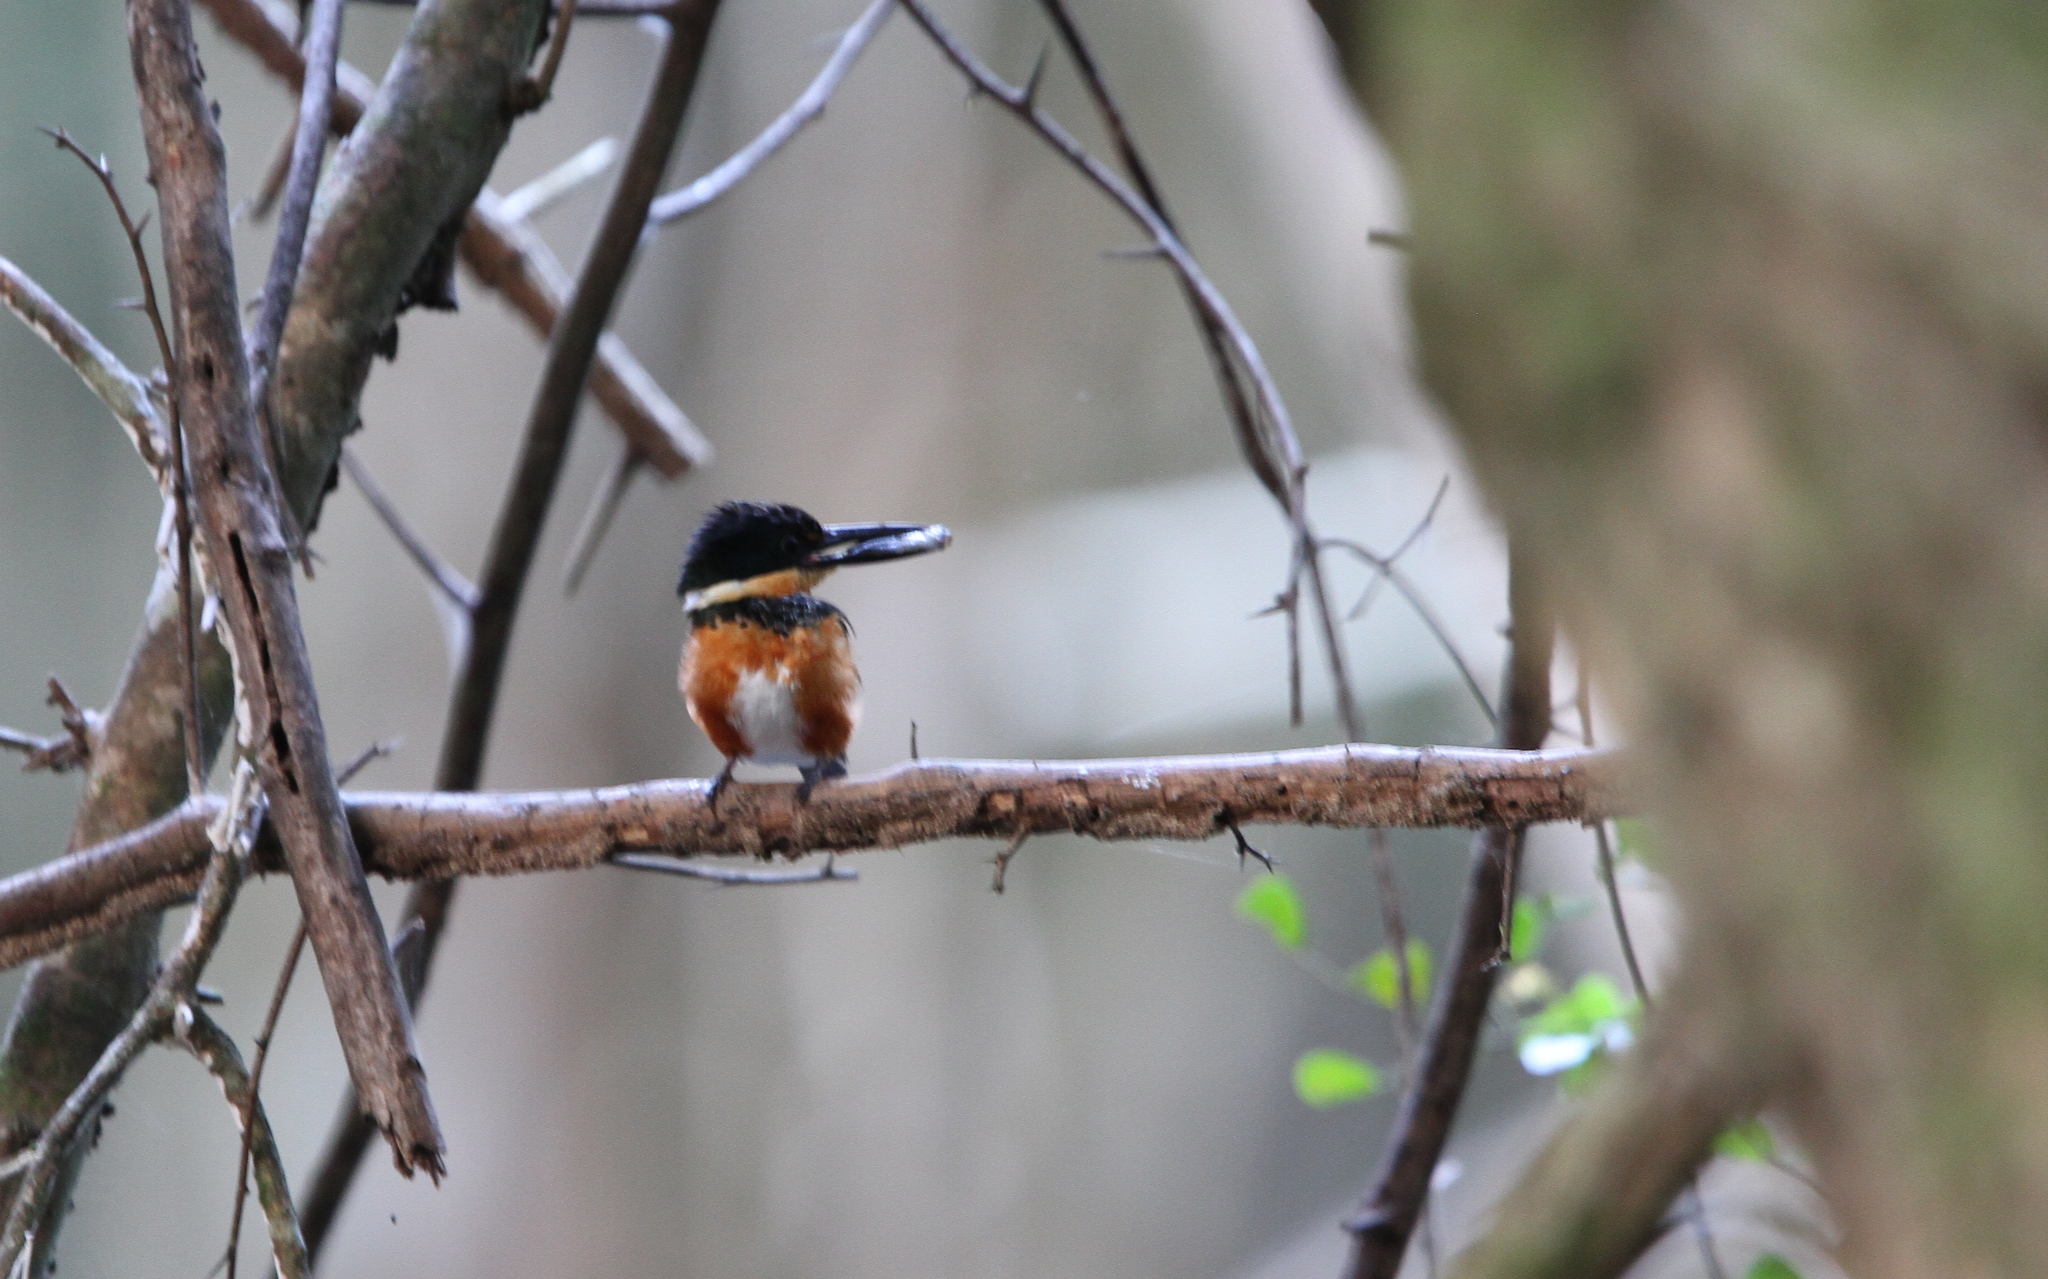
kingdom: Animalia
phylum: Chordata
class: Aves
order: Coraciiformes
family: Alcedinidae
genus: Chloroceryle
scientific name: Chloroceryle aenea
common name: American pygmy kingfisher
